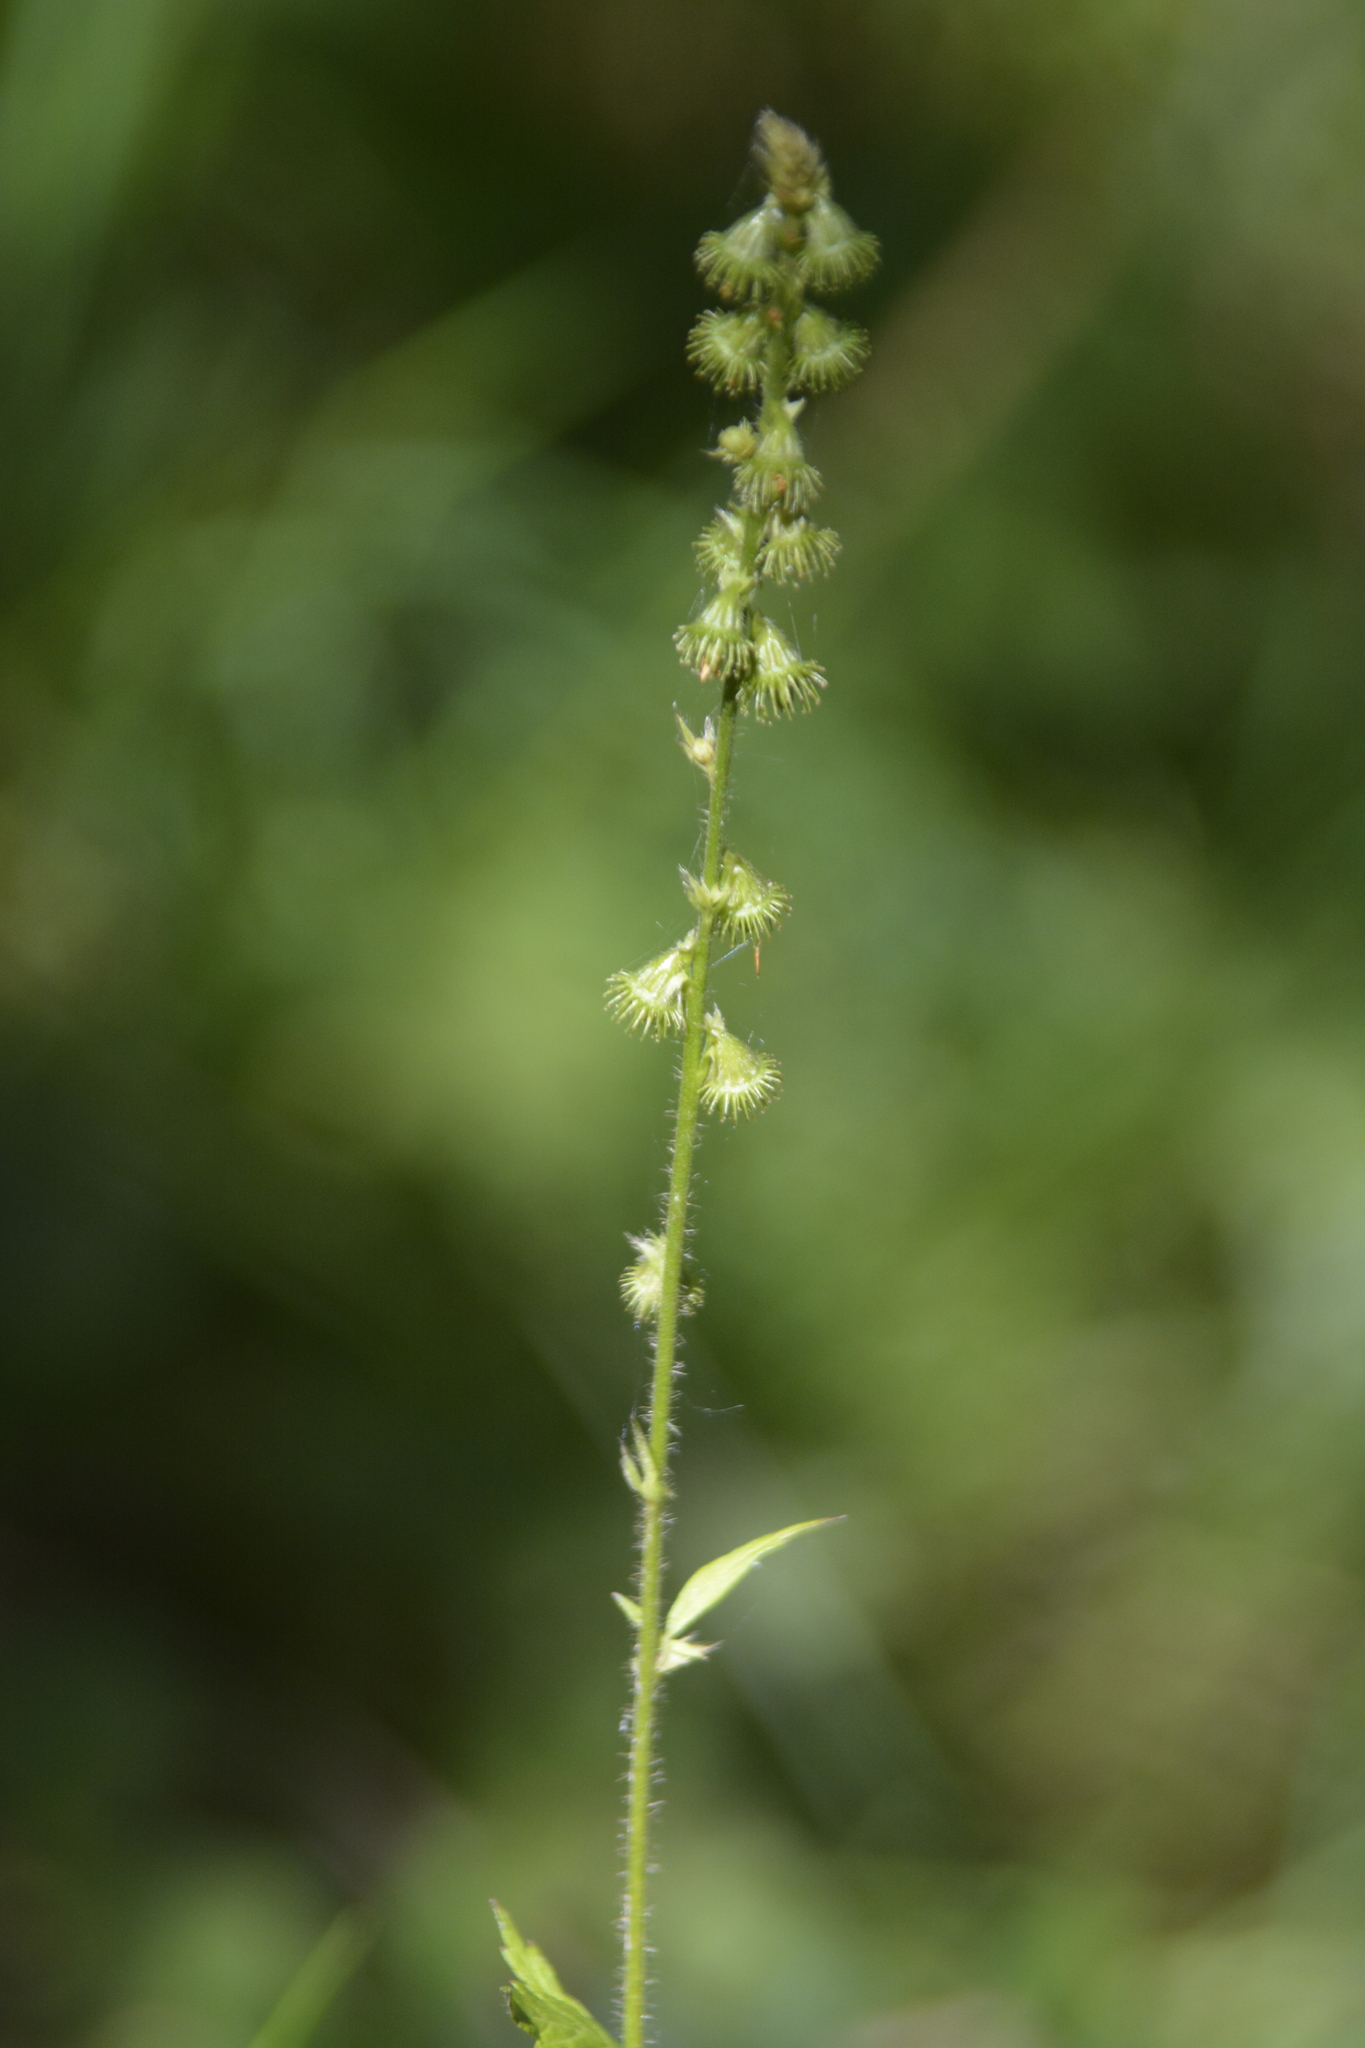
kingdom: Plantae
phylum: Tracheophyta
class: Magnoliopsida
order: Rosales
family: Rosaceae
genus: Agrimonia
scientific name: Agrimonia pilosa
